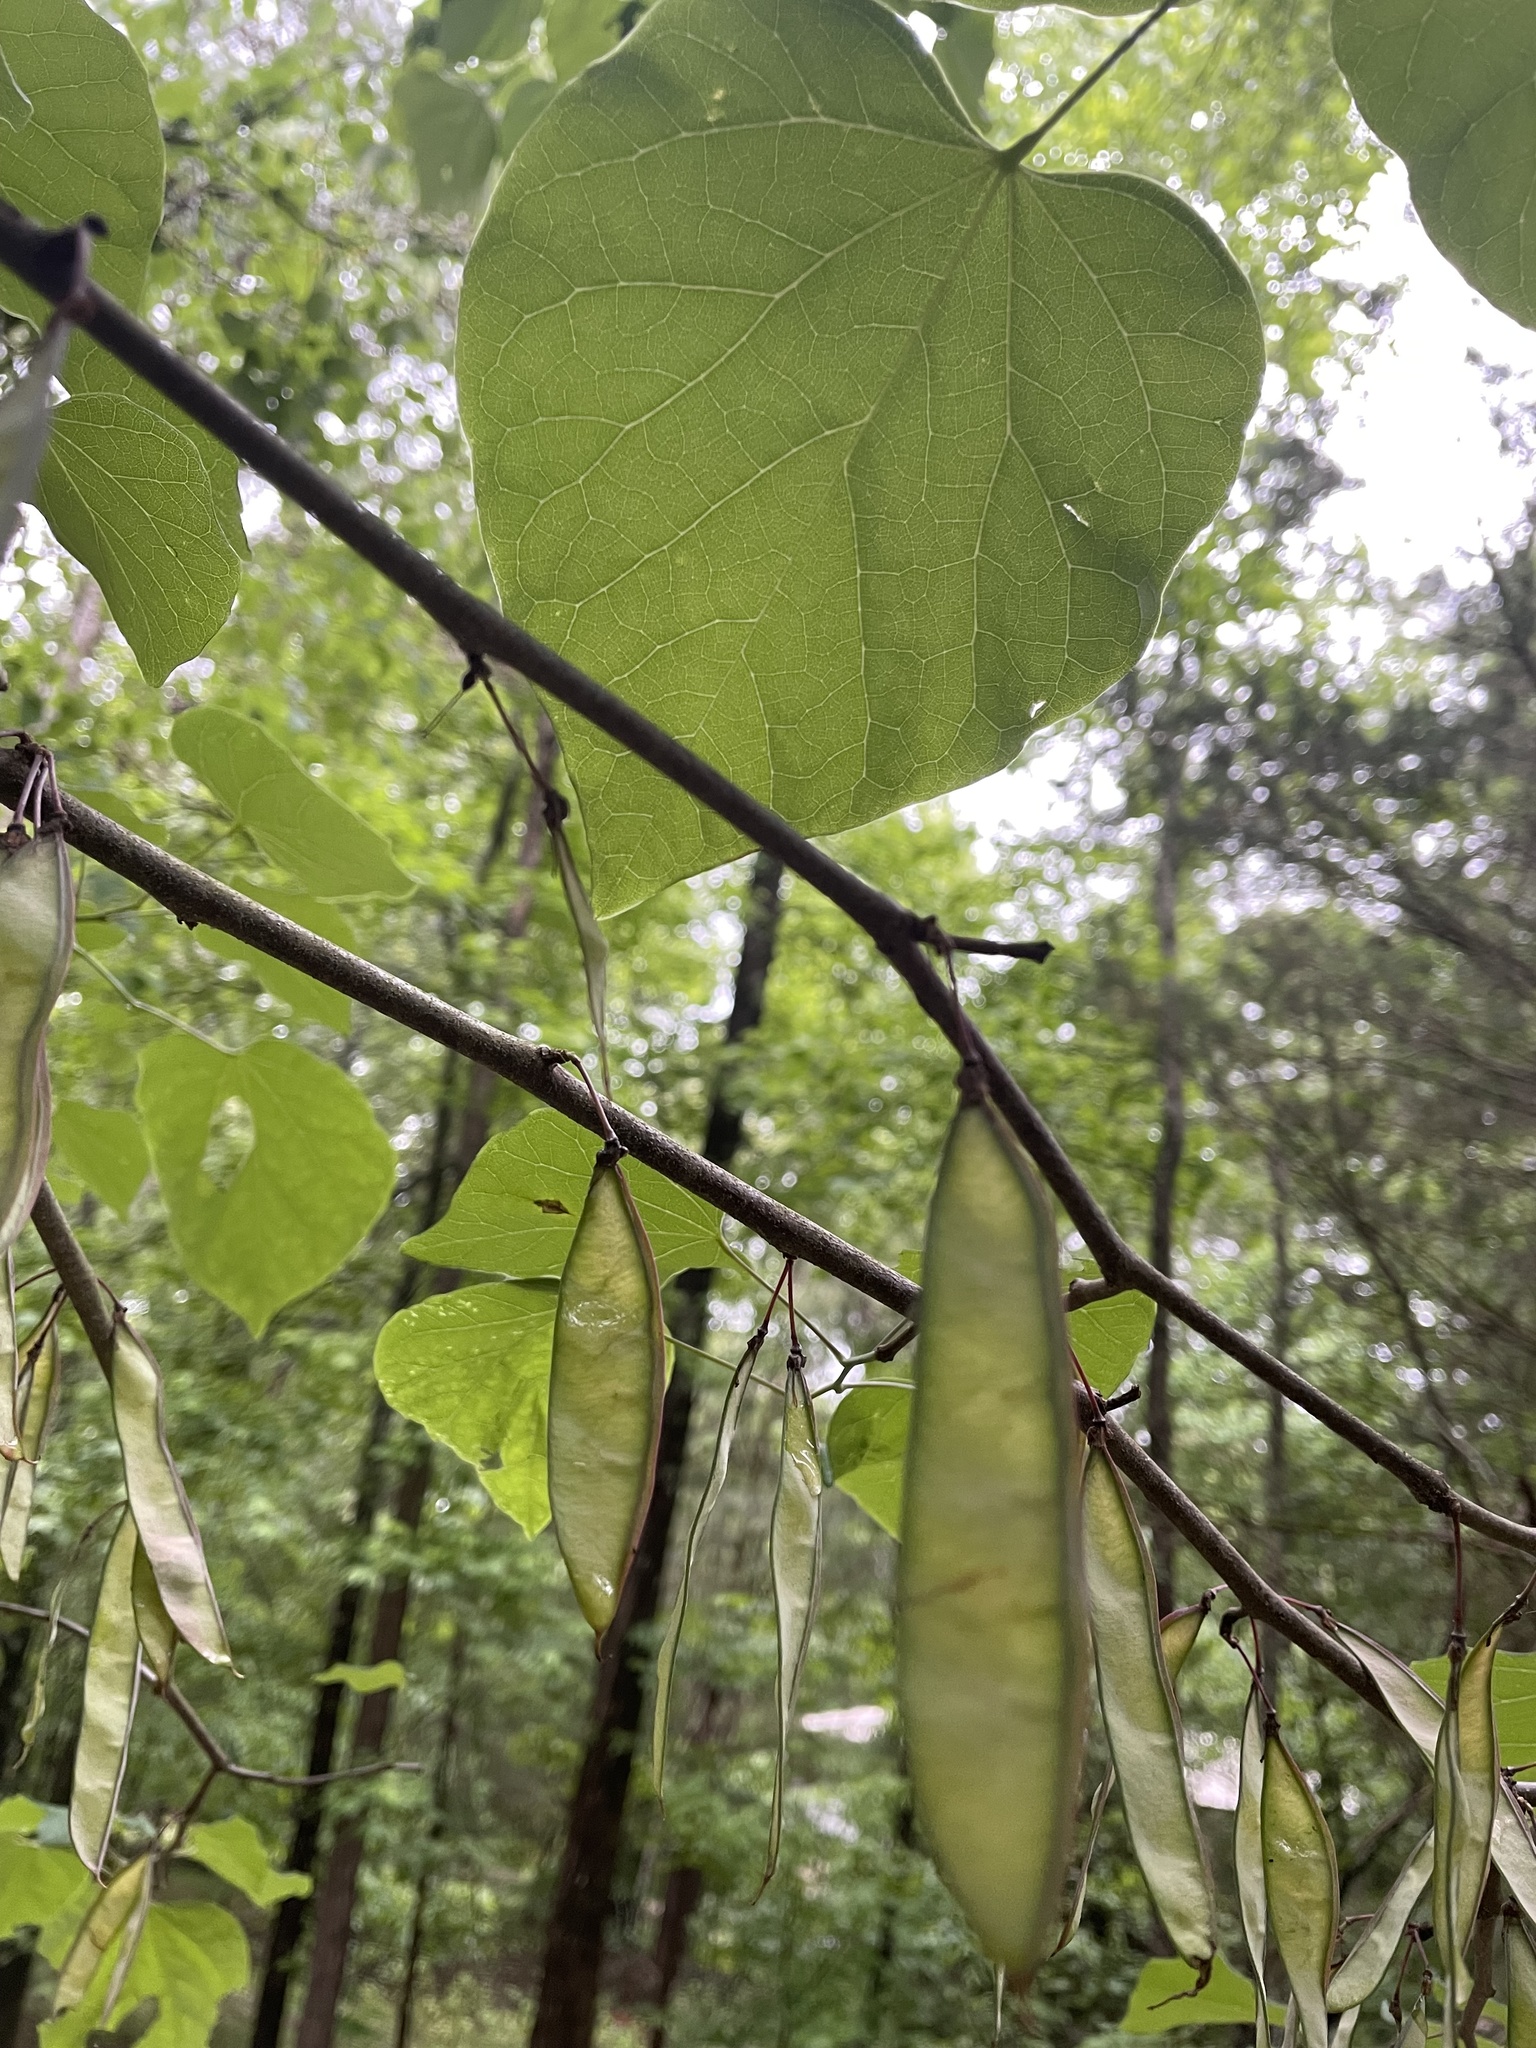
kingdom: Plantae
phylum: Tracheophyta
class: Magnoliopsida
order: Fabales
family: Fabaceae
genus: Cercis
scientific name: Cercis canadensis
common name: Eastern redbud
